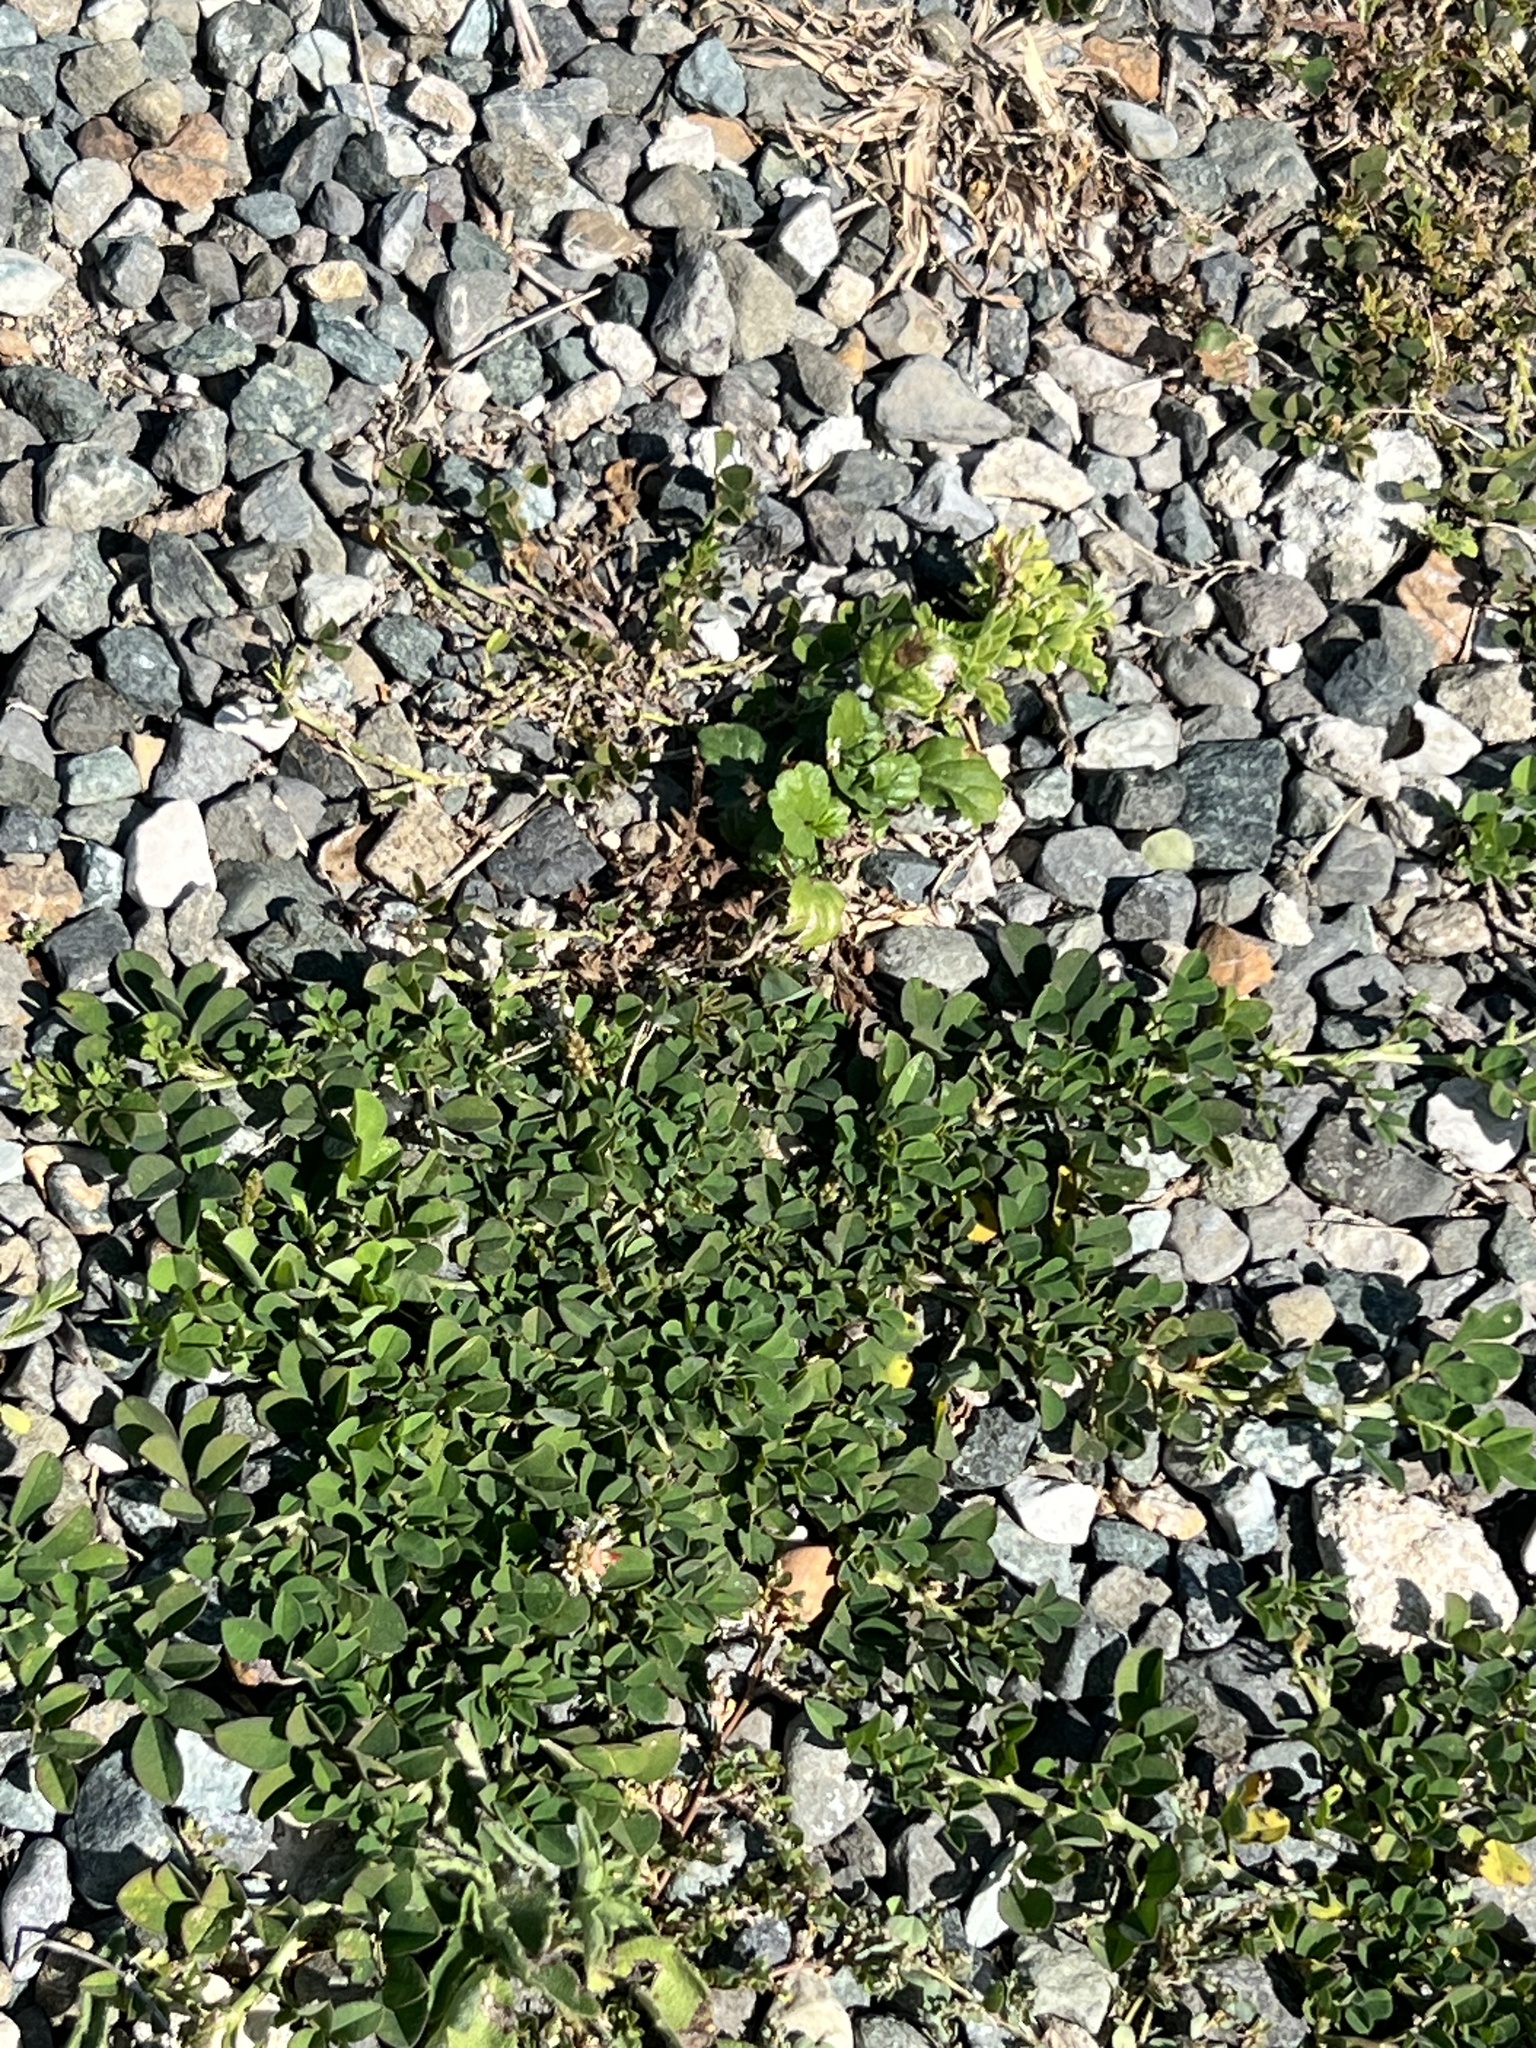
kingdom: Plantae
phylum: Tracheophyta
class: Magnoliopsida
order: Fabales
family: Fabaceae
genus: Indigofera
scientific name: Indigofera spicata
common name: Creeping indigo
